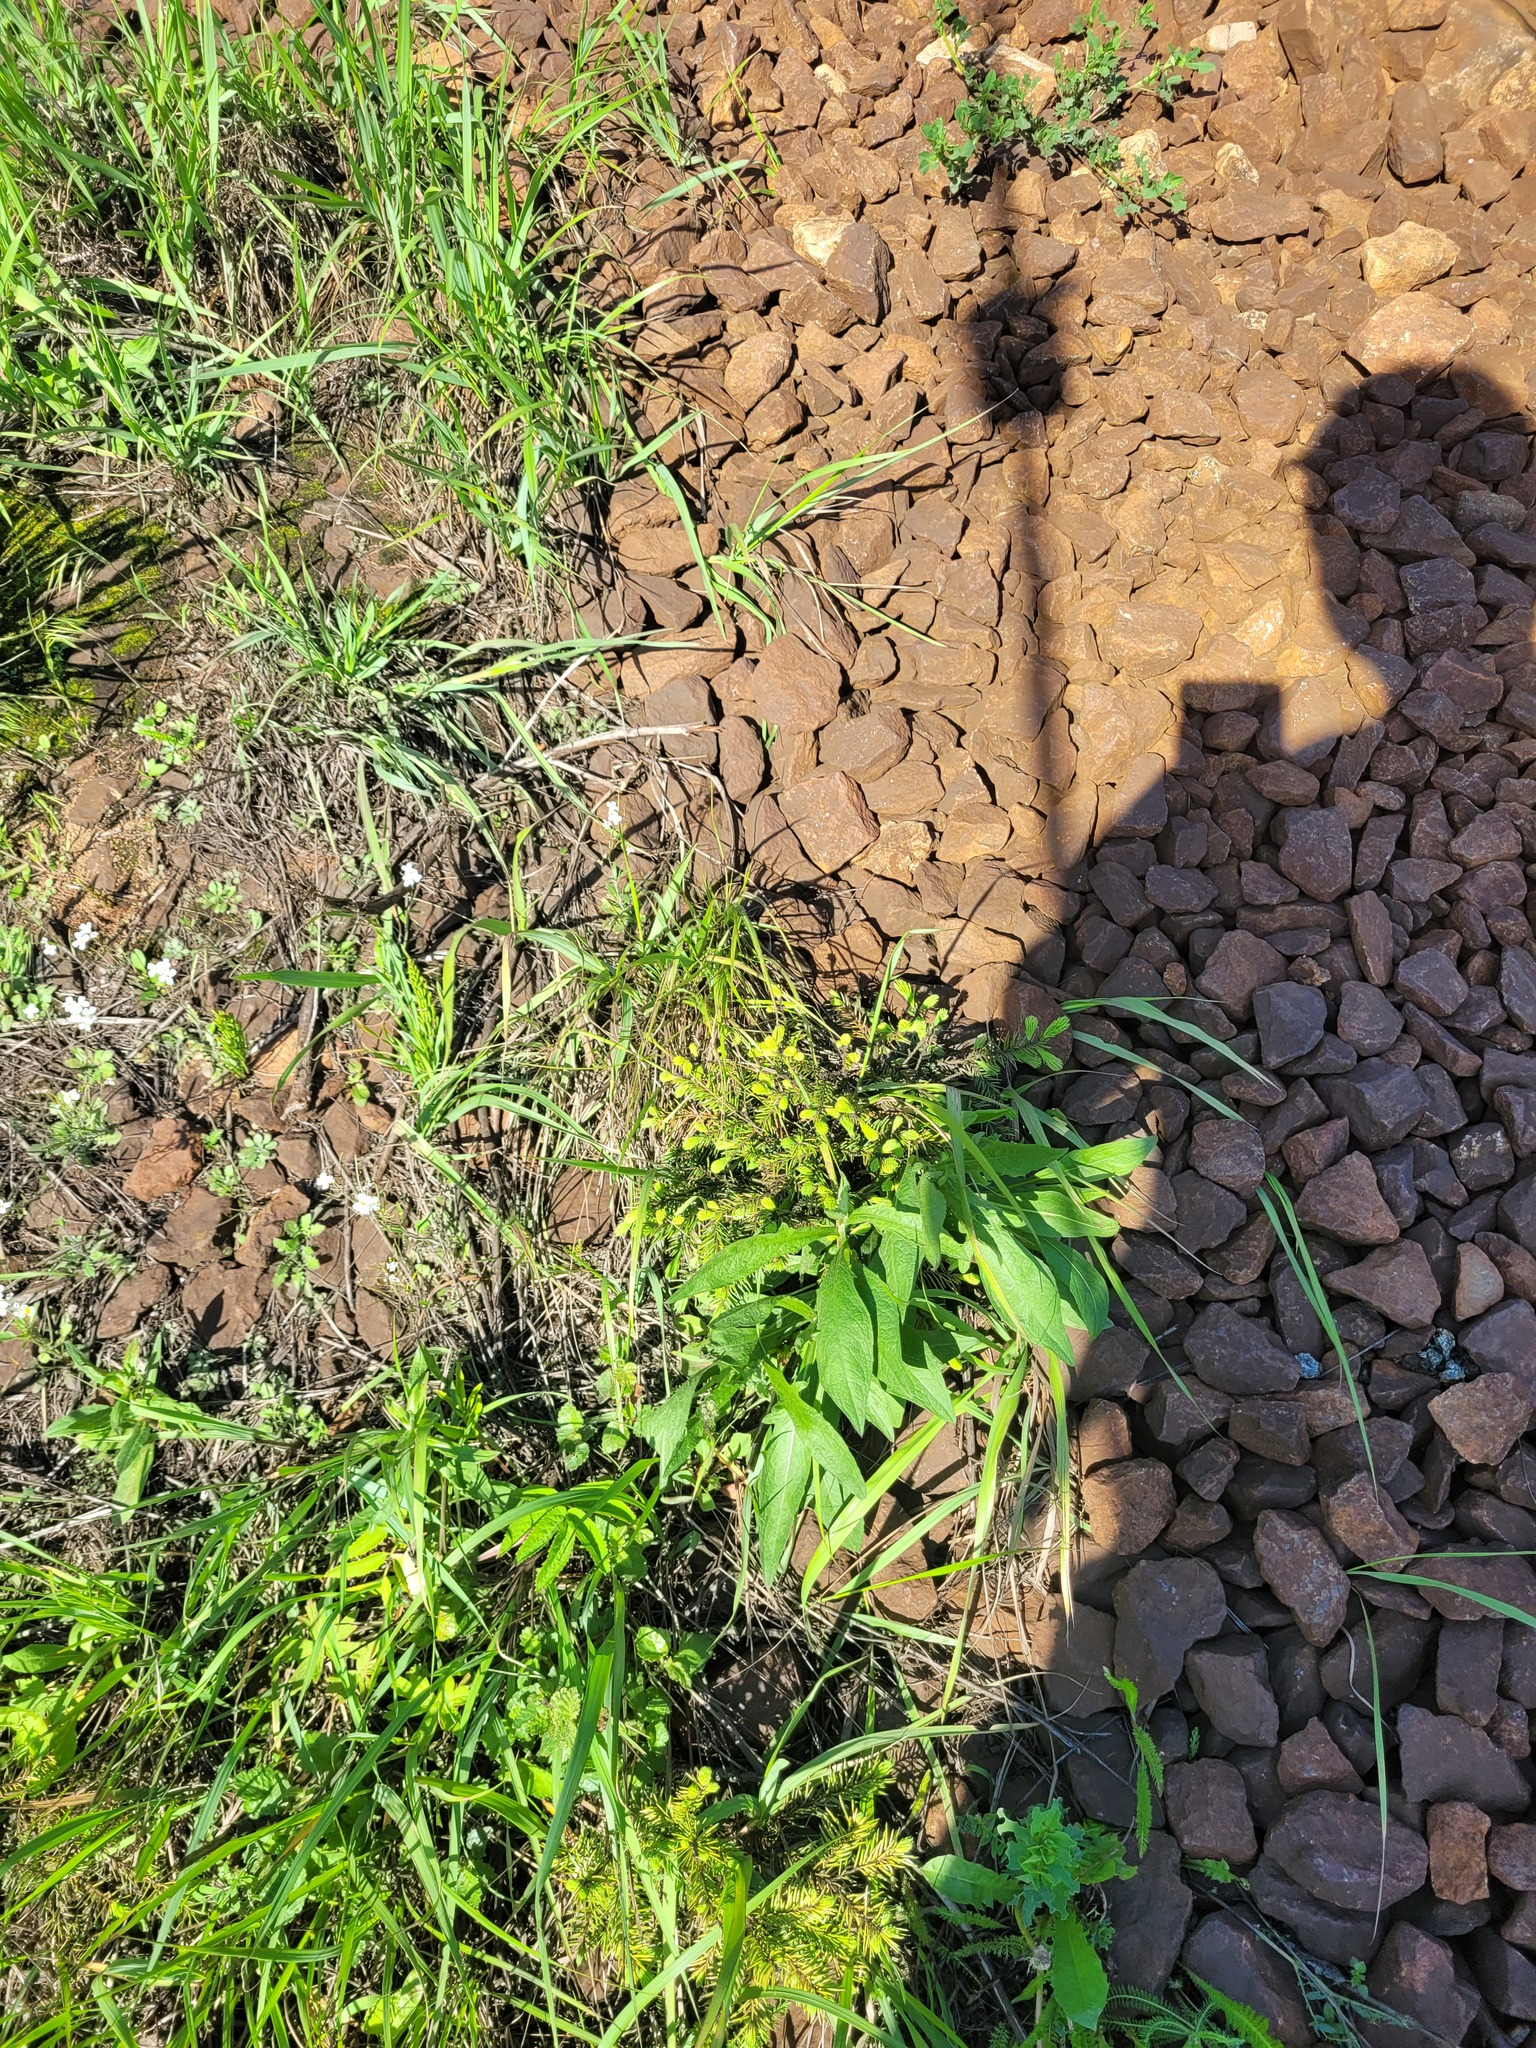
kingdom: Plantae
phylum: Tracheophyta
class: Pinopsida
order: Pinales
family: Pinaceae
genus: Picea
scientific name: Picea abies
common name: Norway spruce
